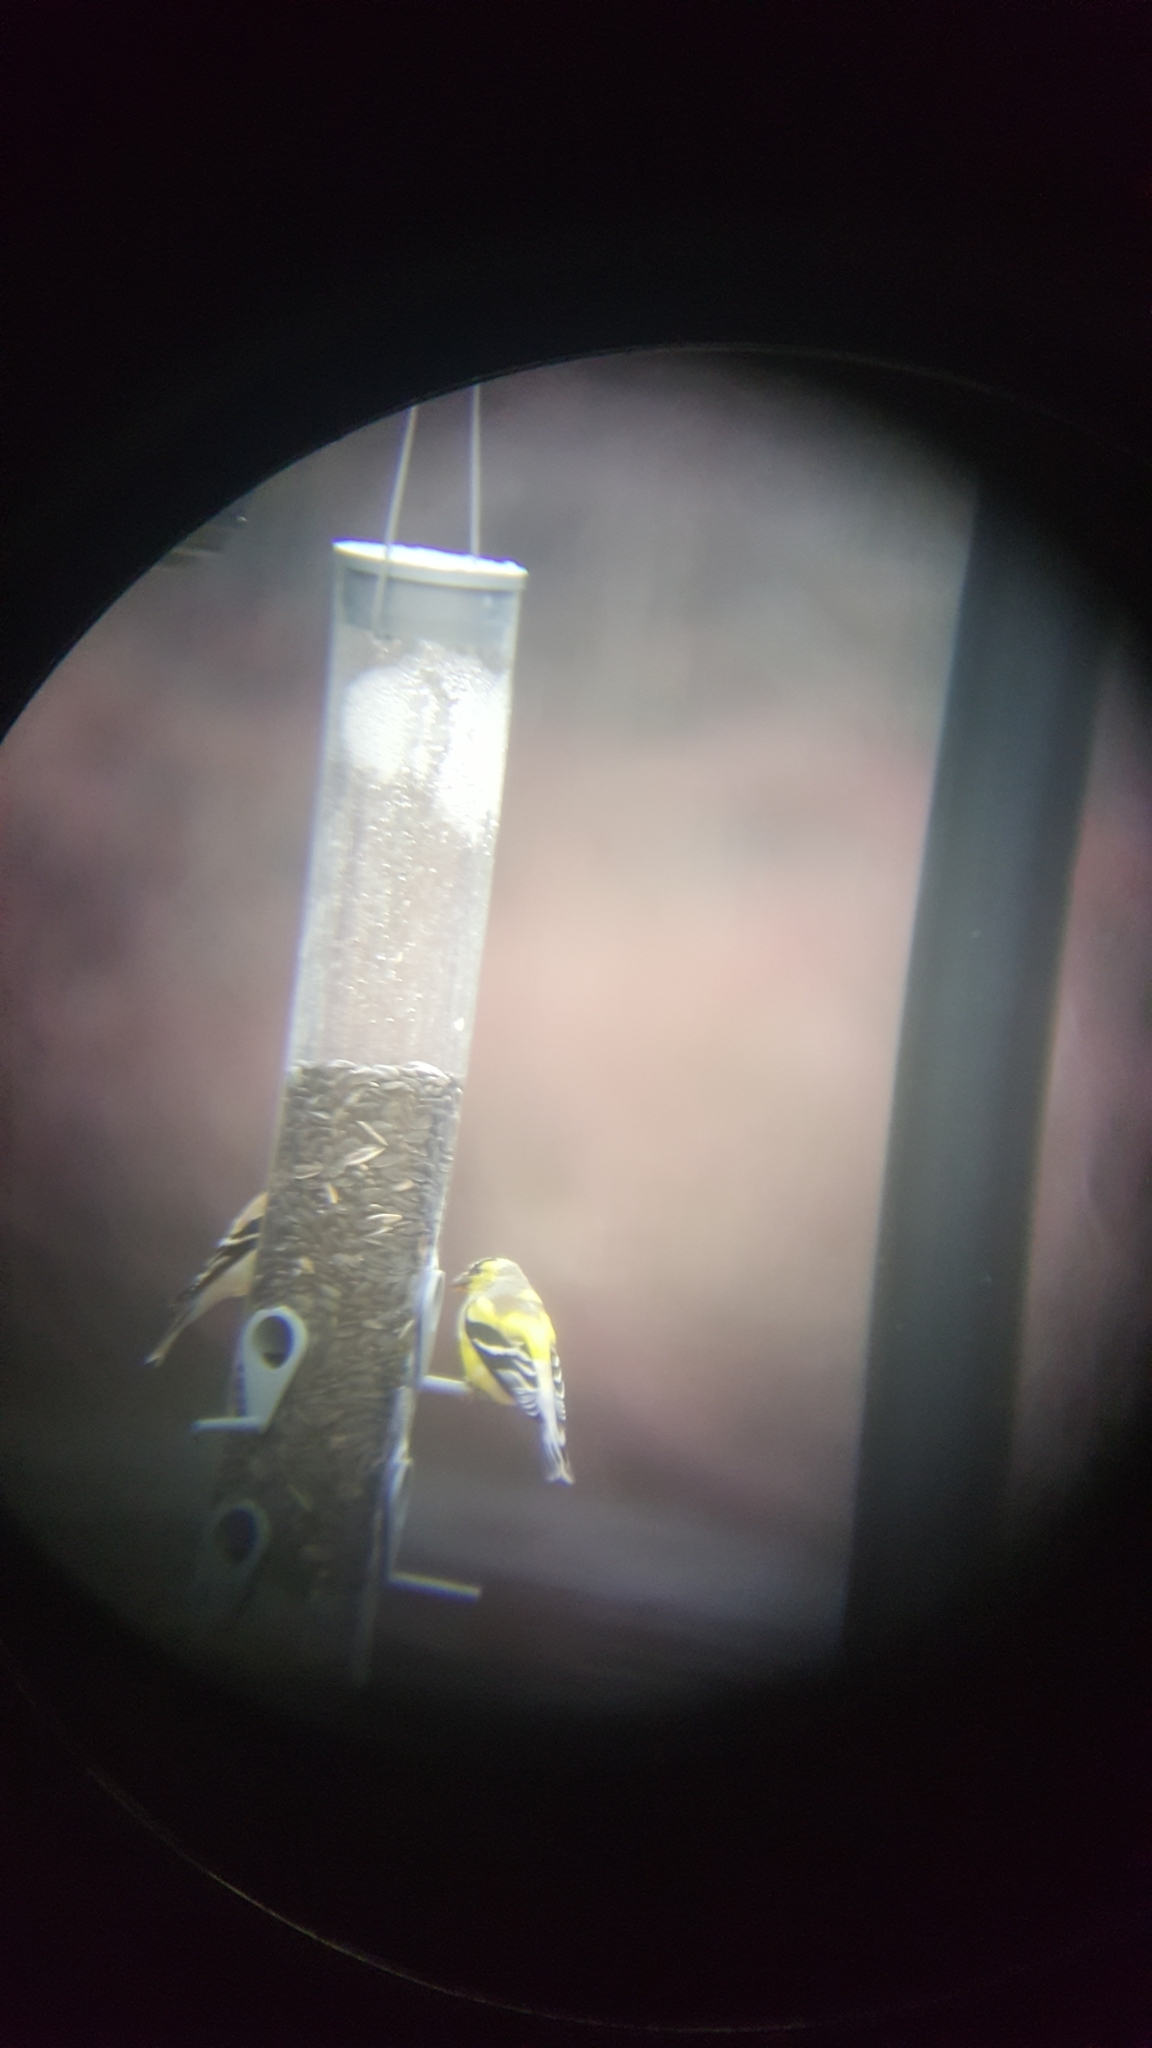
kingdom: Animalia
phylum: Chordata
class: Aves
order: Passeriformes
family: Fringillidae
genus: Spinus
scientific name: Spinus tristis
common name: American goldfinch
